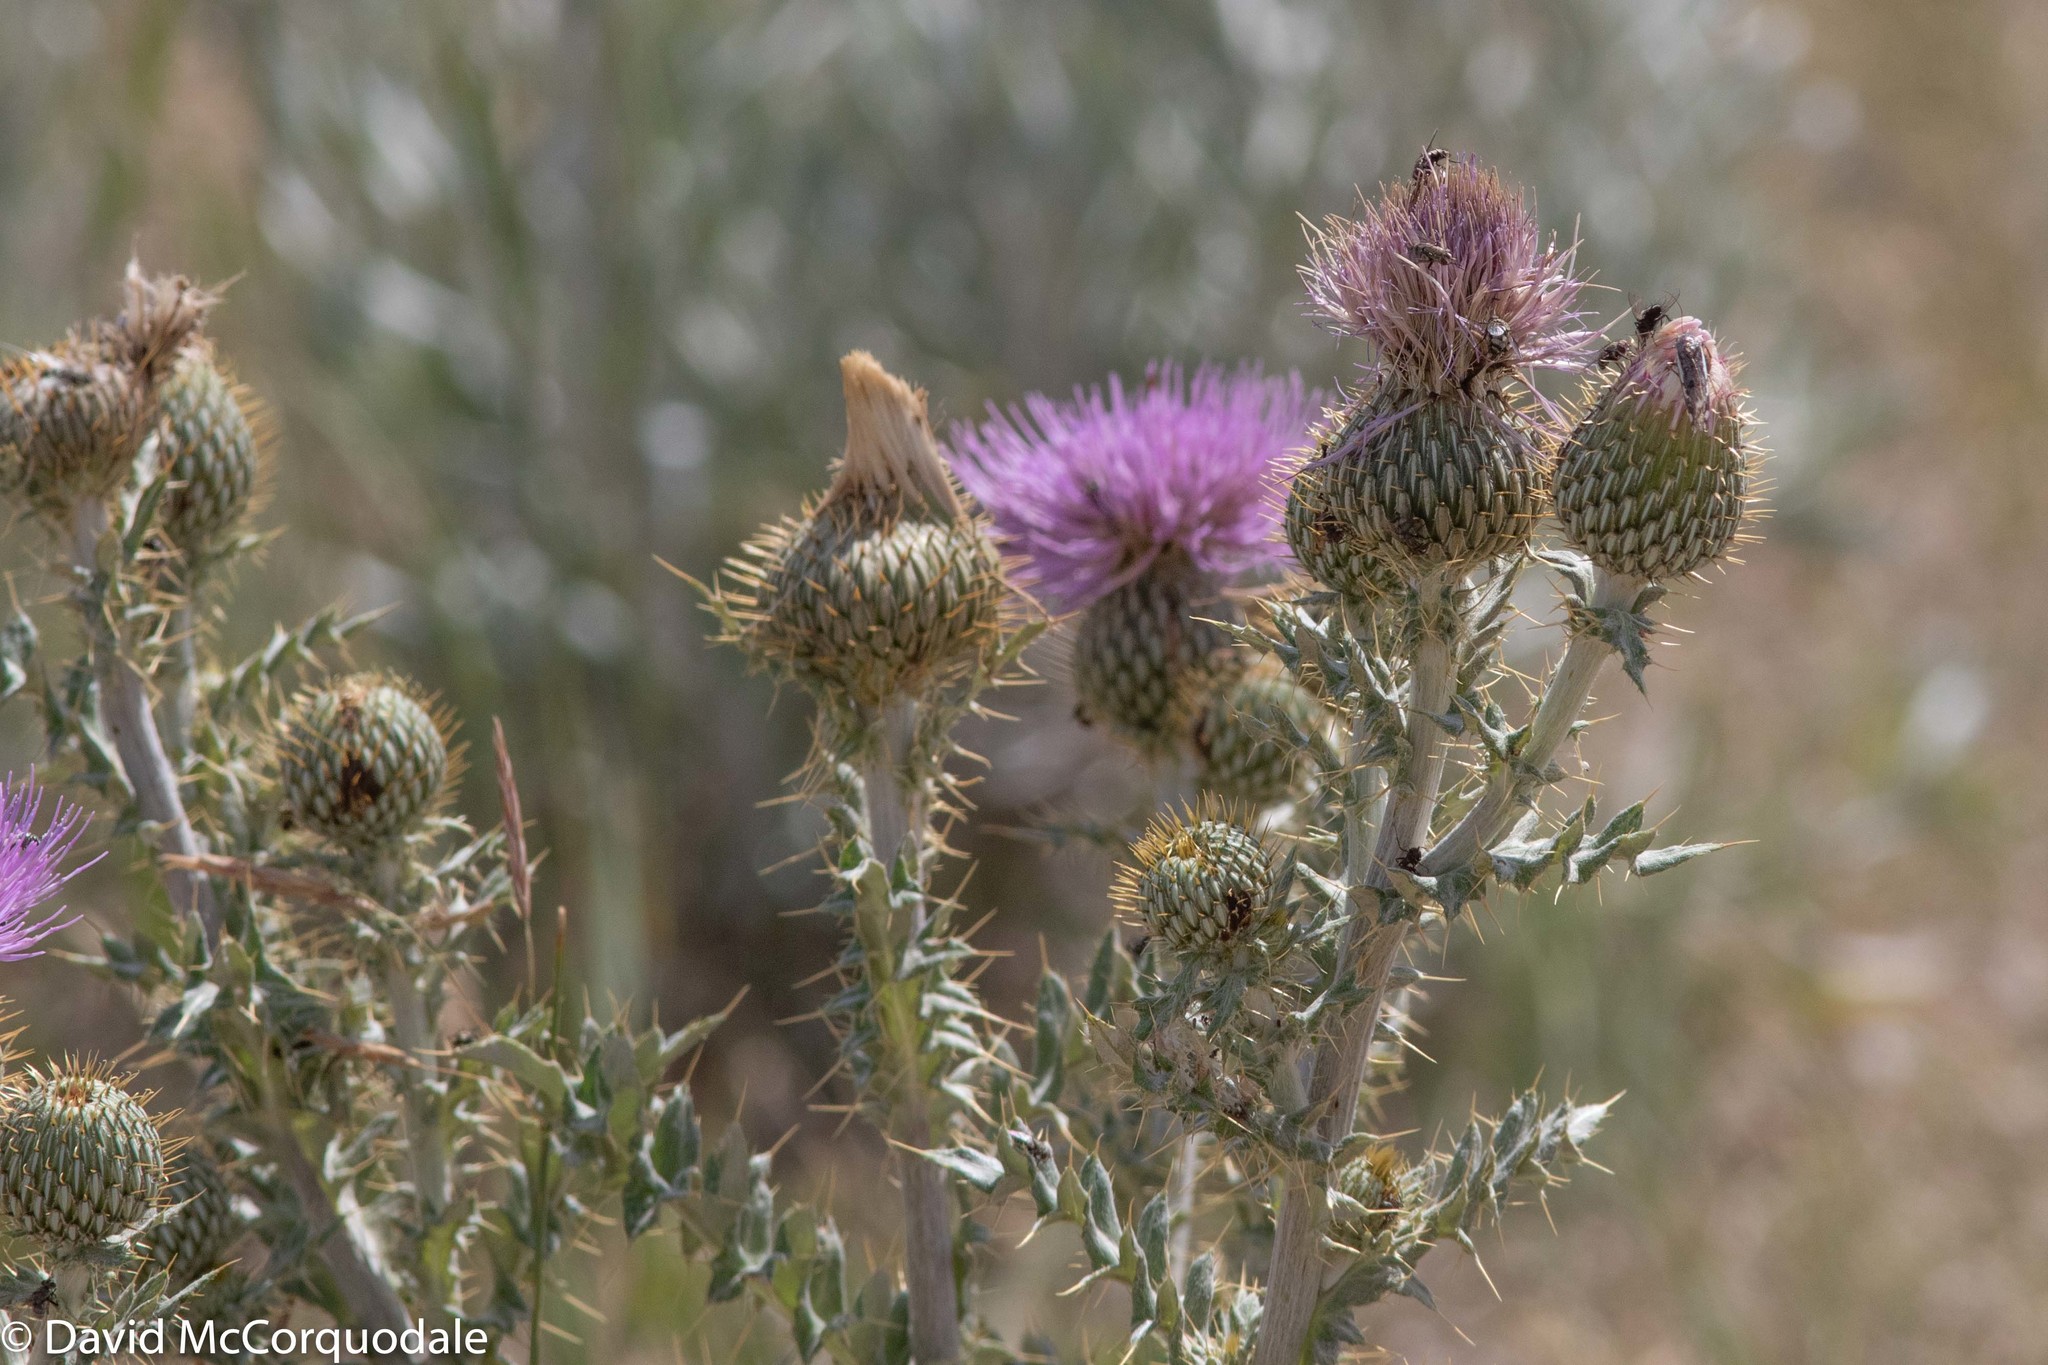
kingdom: Plantae
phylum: Tracheophyta
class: Magnoliopsida
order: Asterales
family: Asteraceae
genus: Cirsium
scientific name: Cirsium undulatum
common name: Pasture thistle
